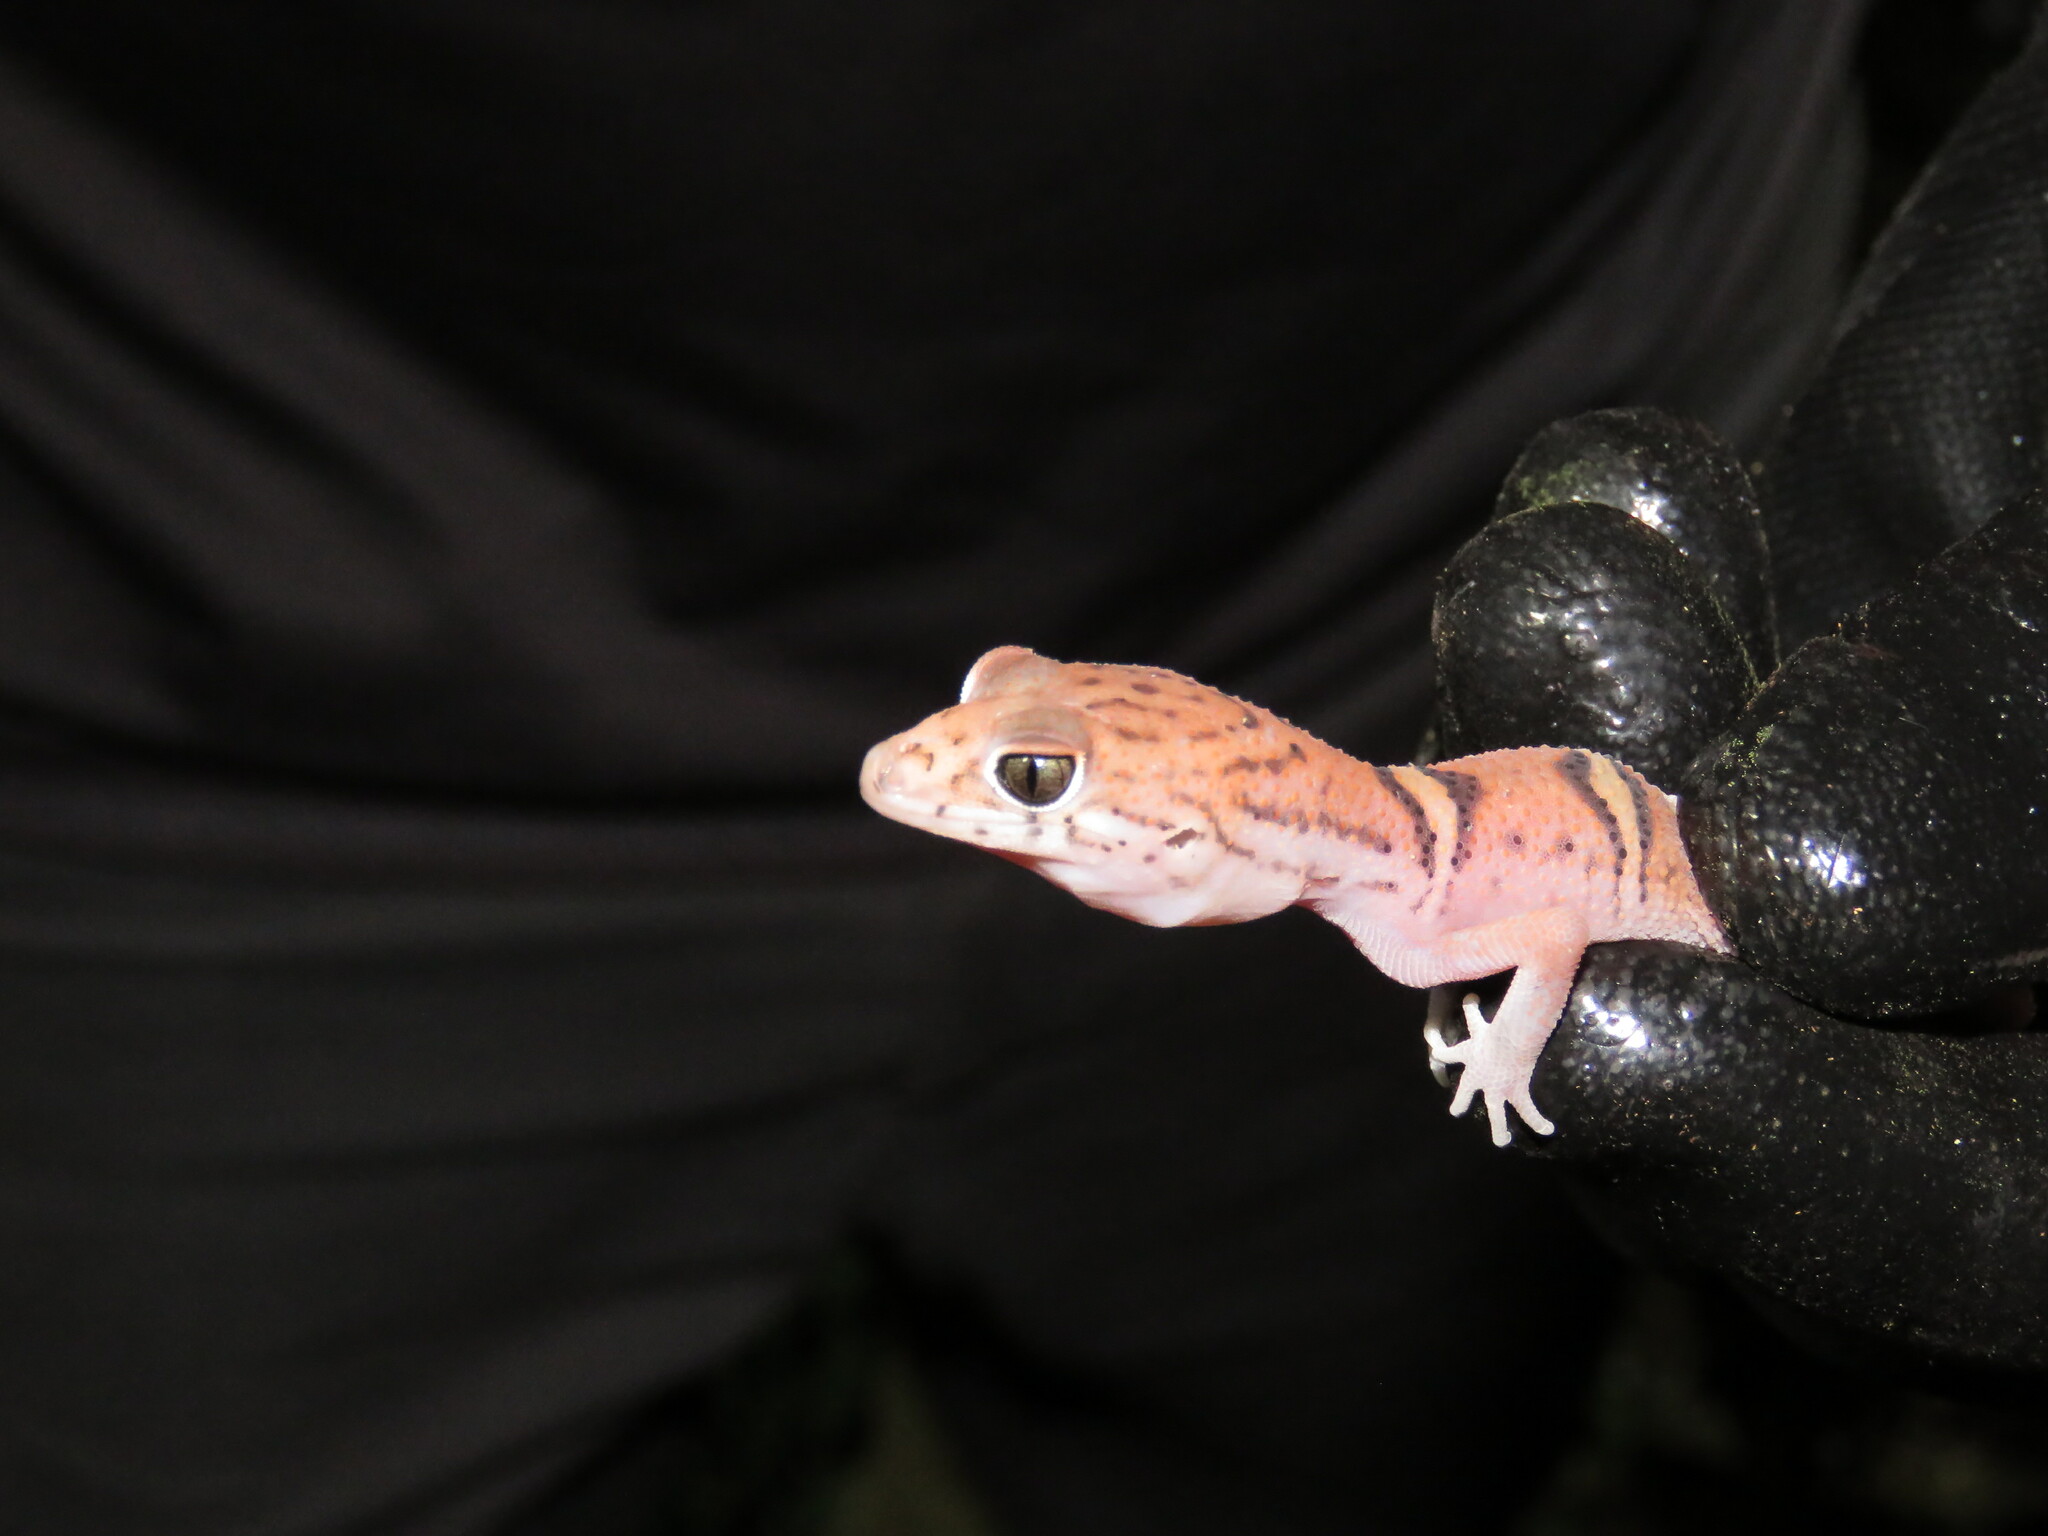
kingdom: Animalia
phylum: Chordata
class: Squamata
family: Eublepharidae
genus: Coleonyx
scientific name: Coleonyx elegans
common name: Yucatan banded gecko
